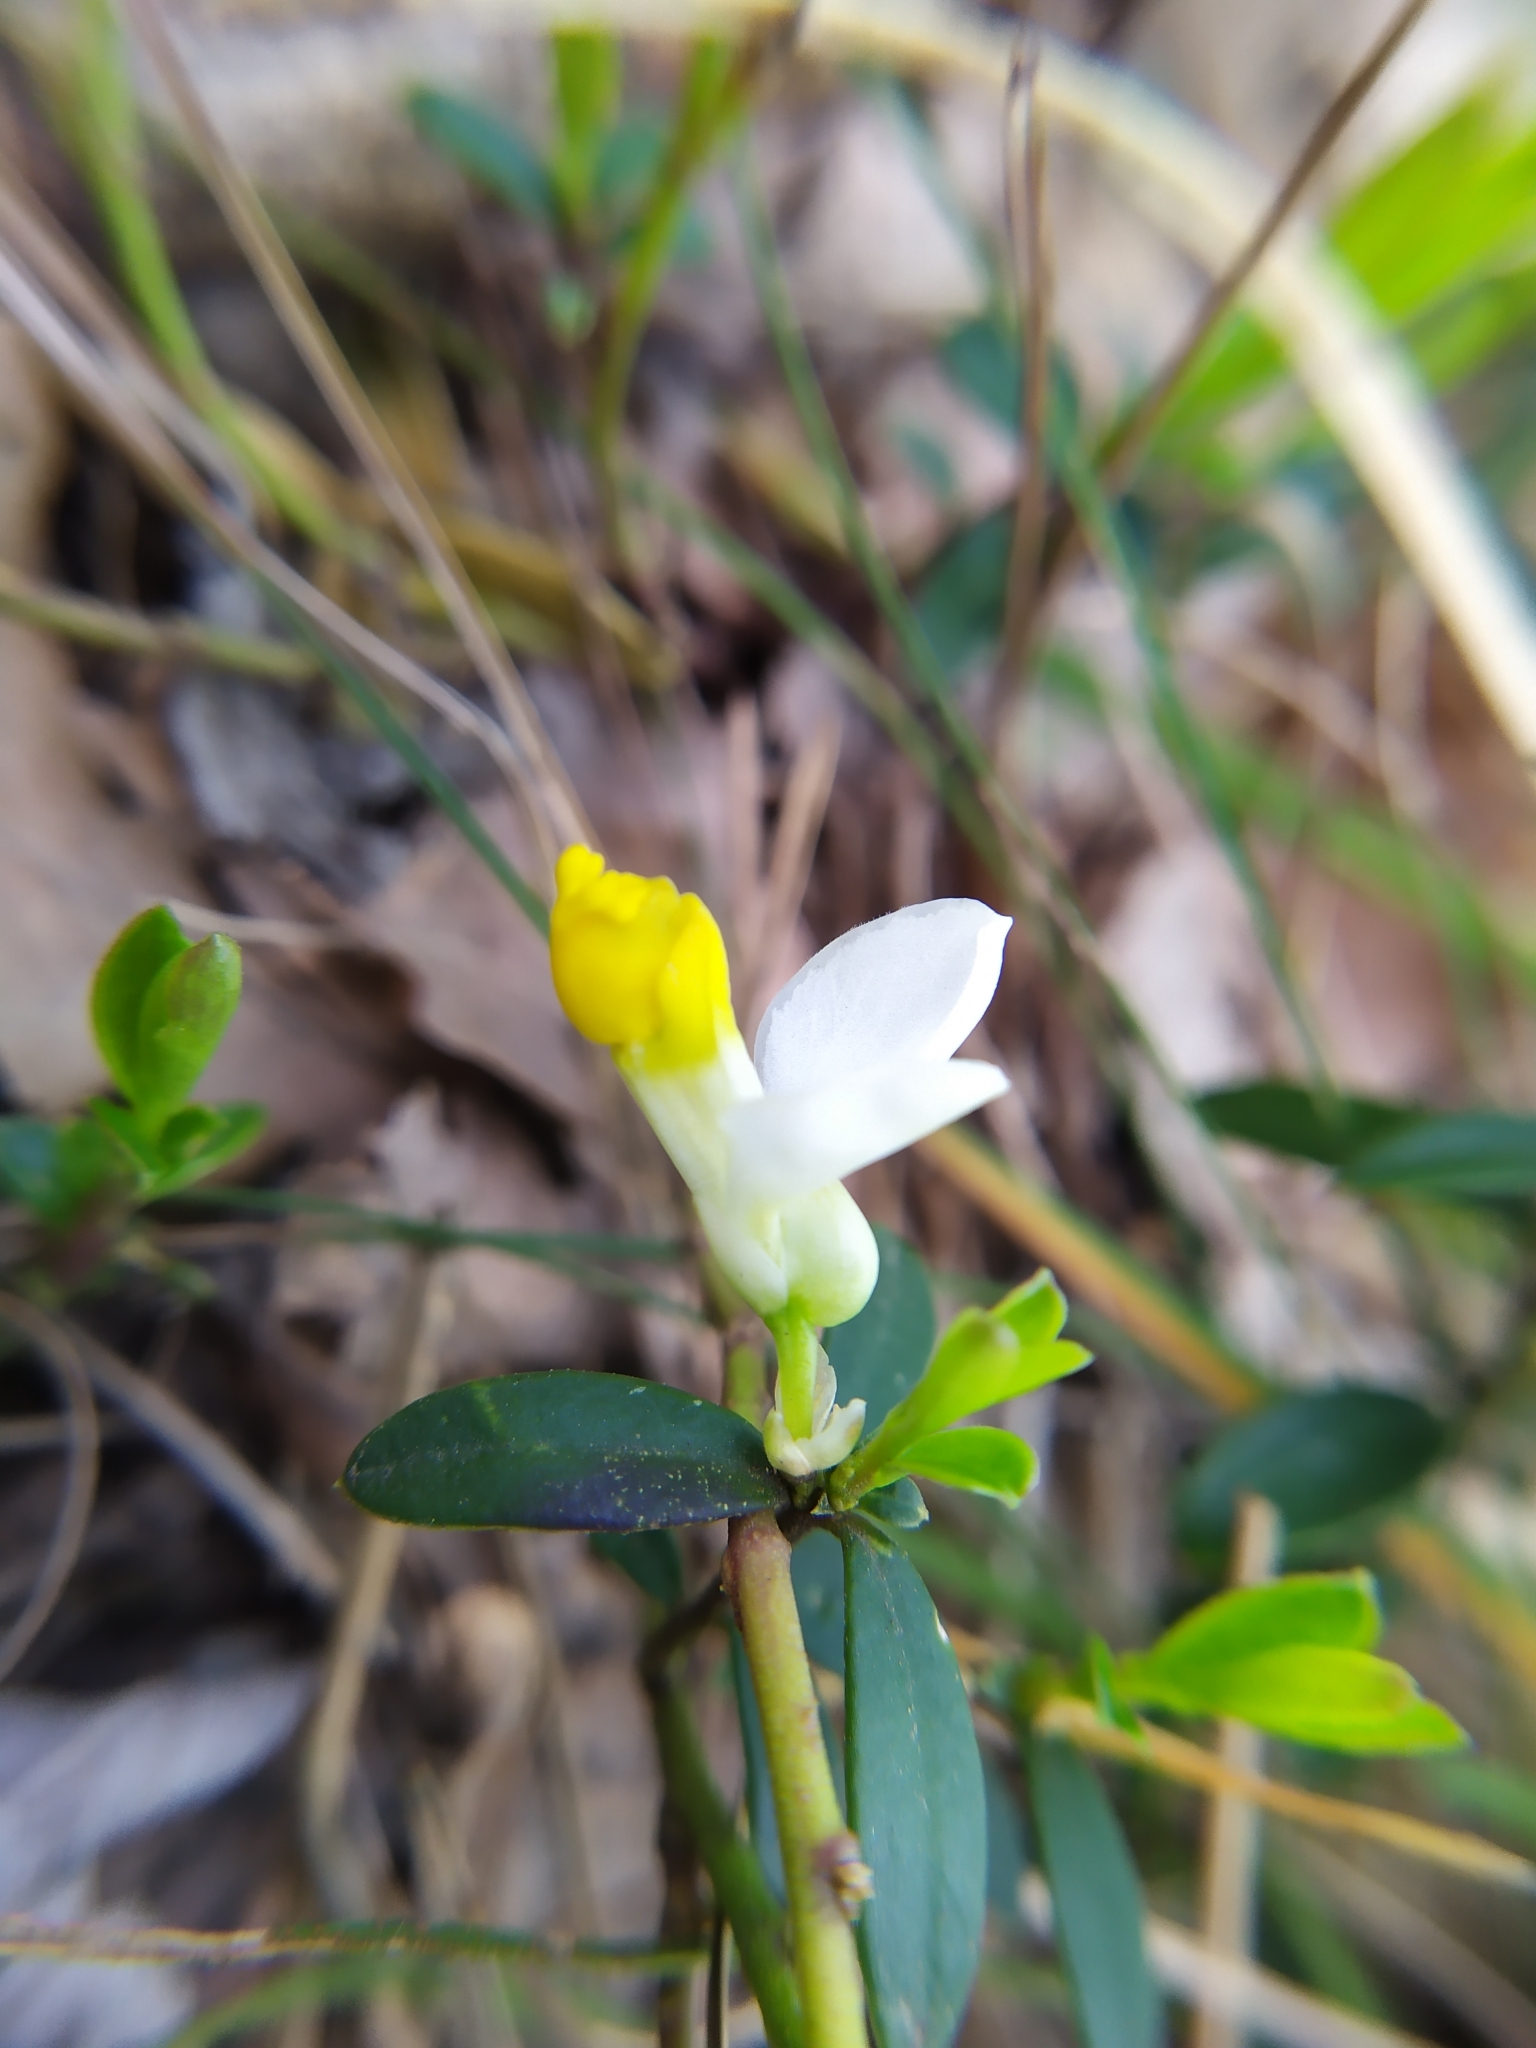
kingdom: Plantae
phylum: Tracheophyta
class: Magnoliopsida
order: Fabales
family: Polygalaceae
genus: Polygaloides
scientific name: Polygaloides chamaebuxus
